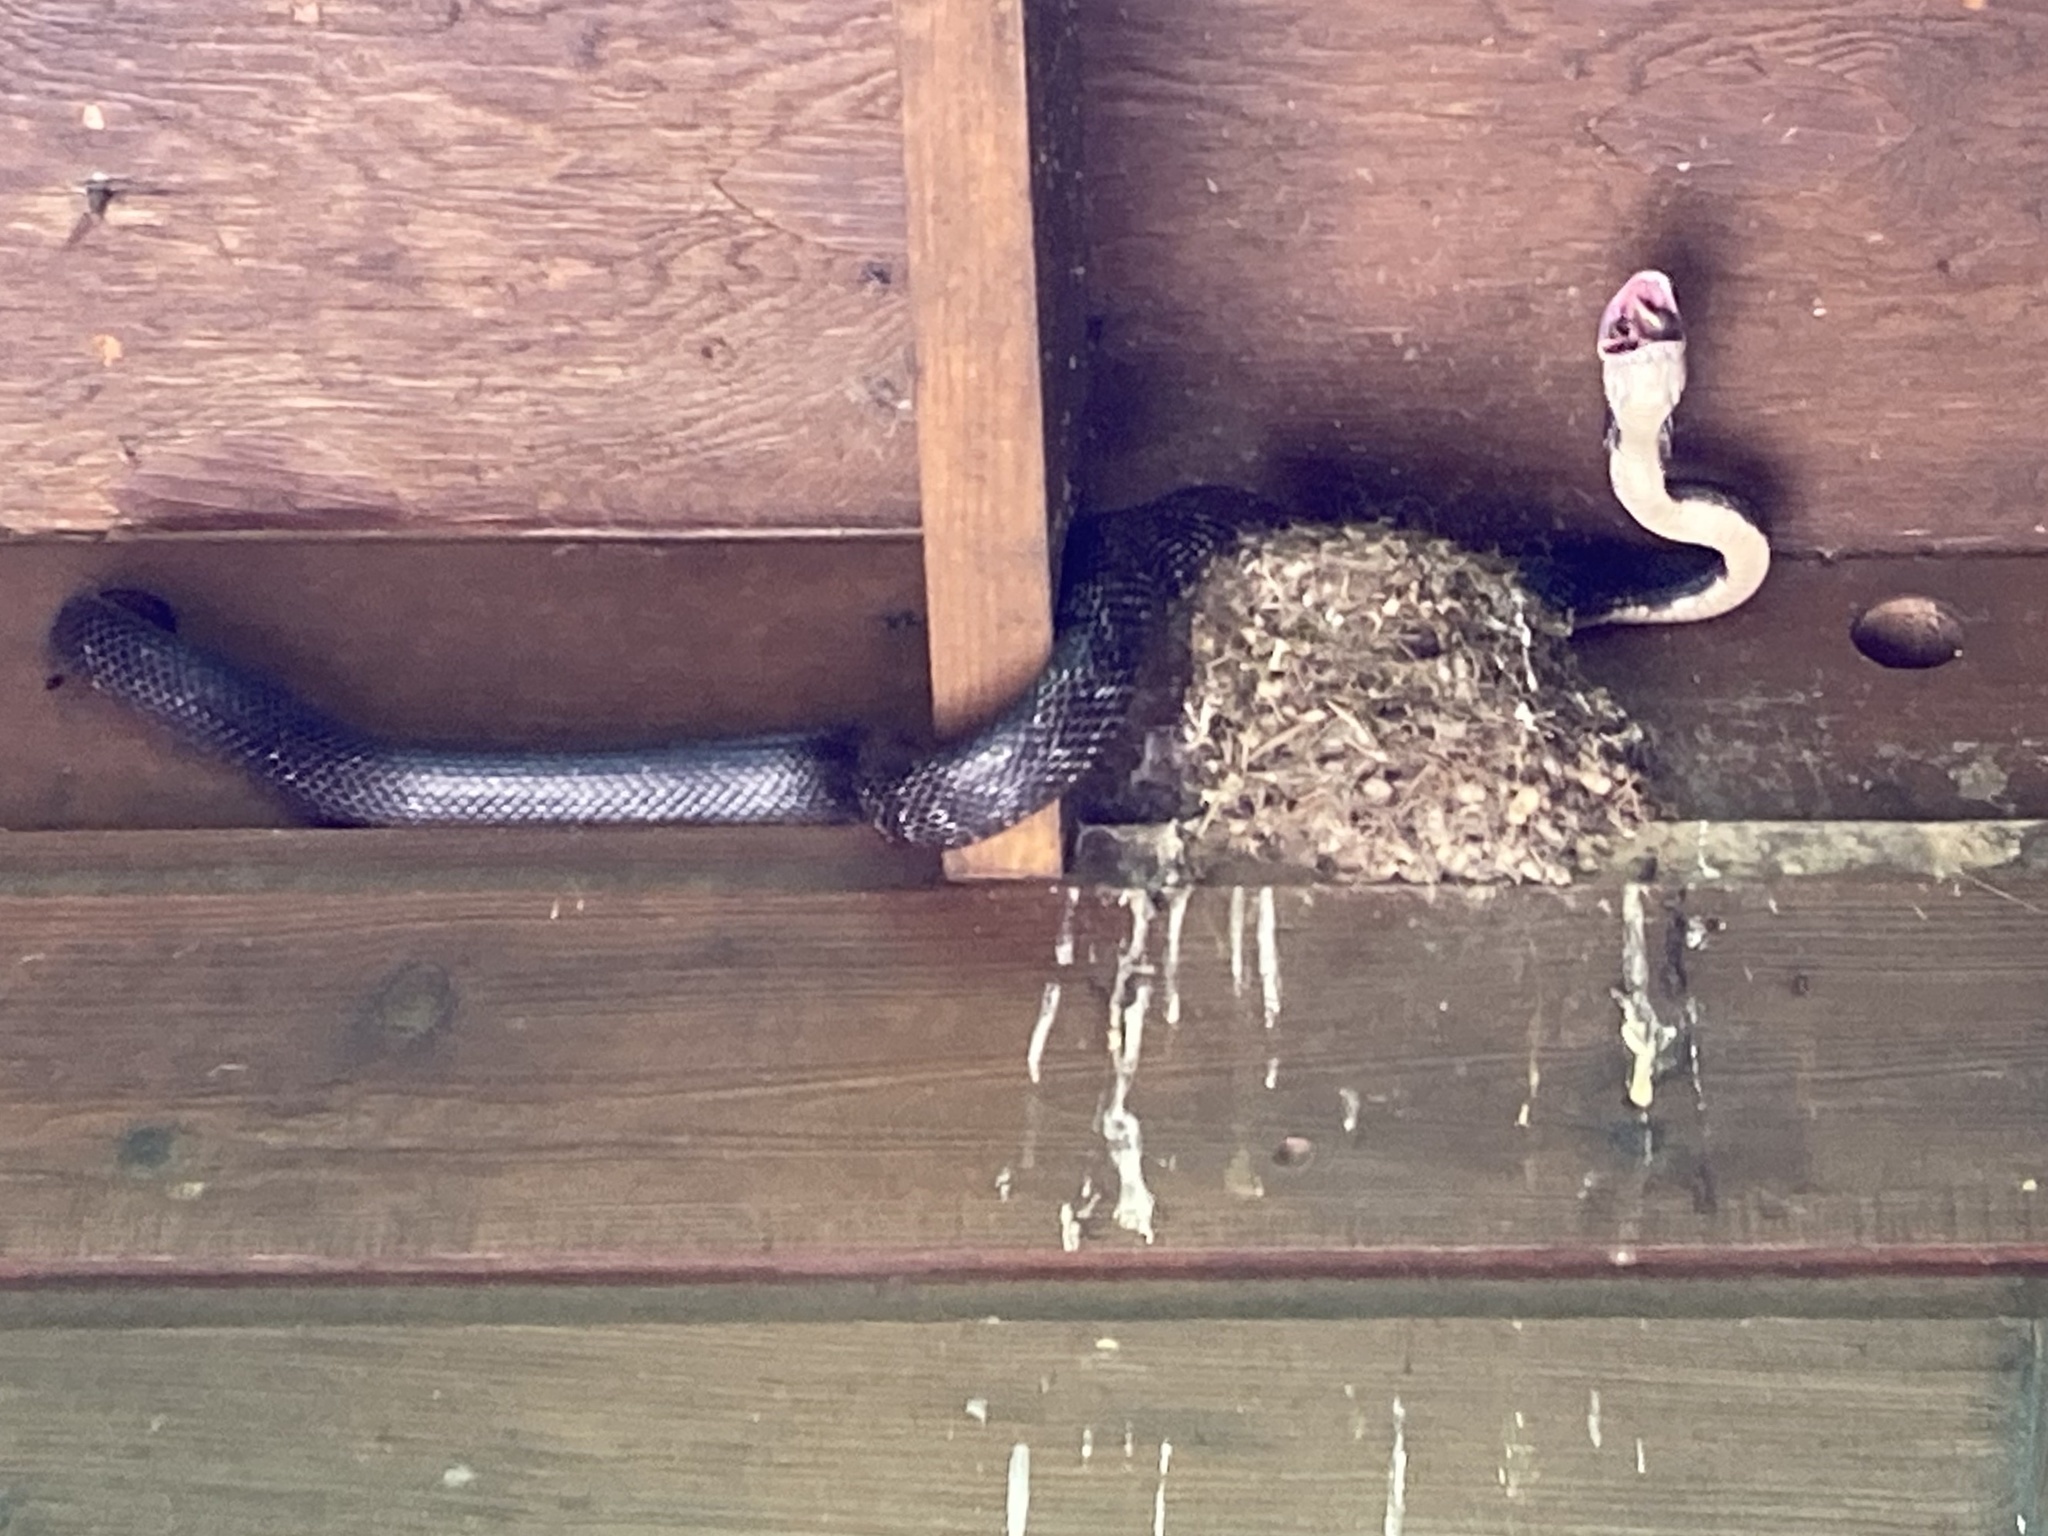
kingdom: Animalia
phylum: Chordata
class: Squamata
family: Colubridae
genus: Pantherophis
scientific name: Pantherophis alleghaniensis
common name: Eastern rat snake
